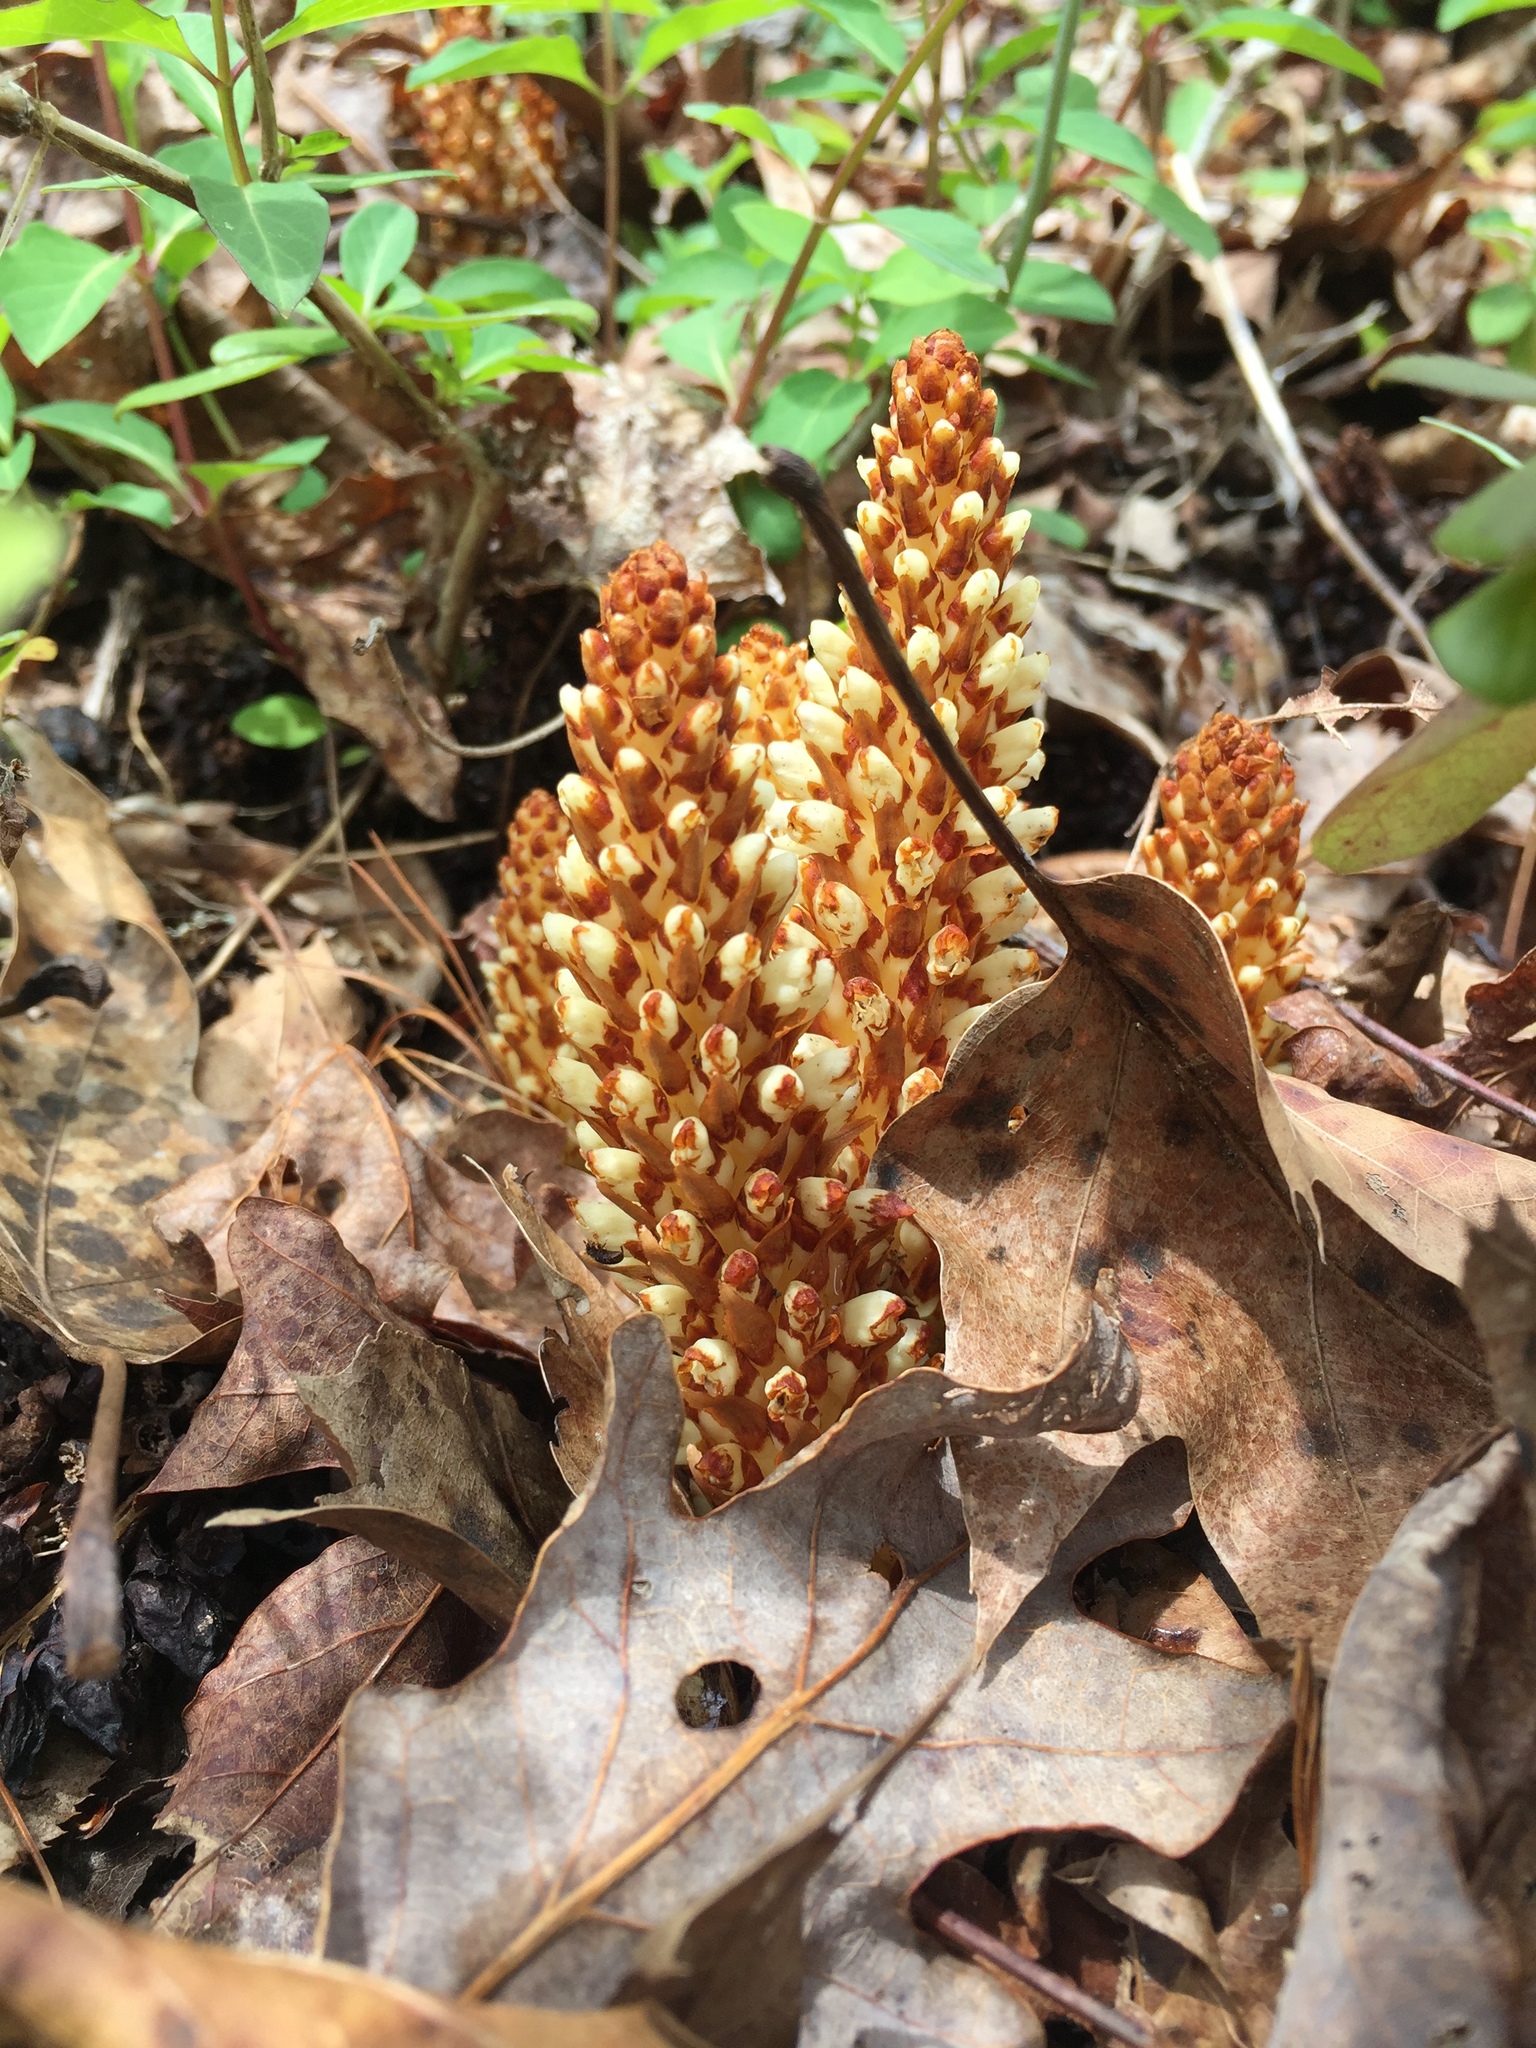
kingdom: Plantae
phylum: Tracheophyta
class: Magnoliopsida
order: Lamiales
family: Orobanchaceae
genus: Conopholis
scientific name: Conopholis americana
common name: American cancer-root
